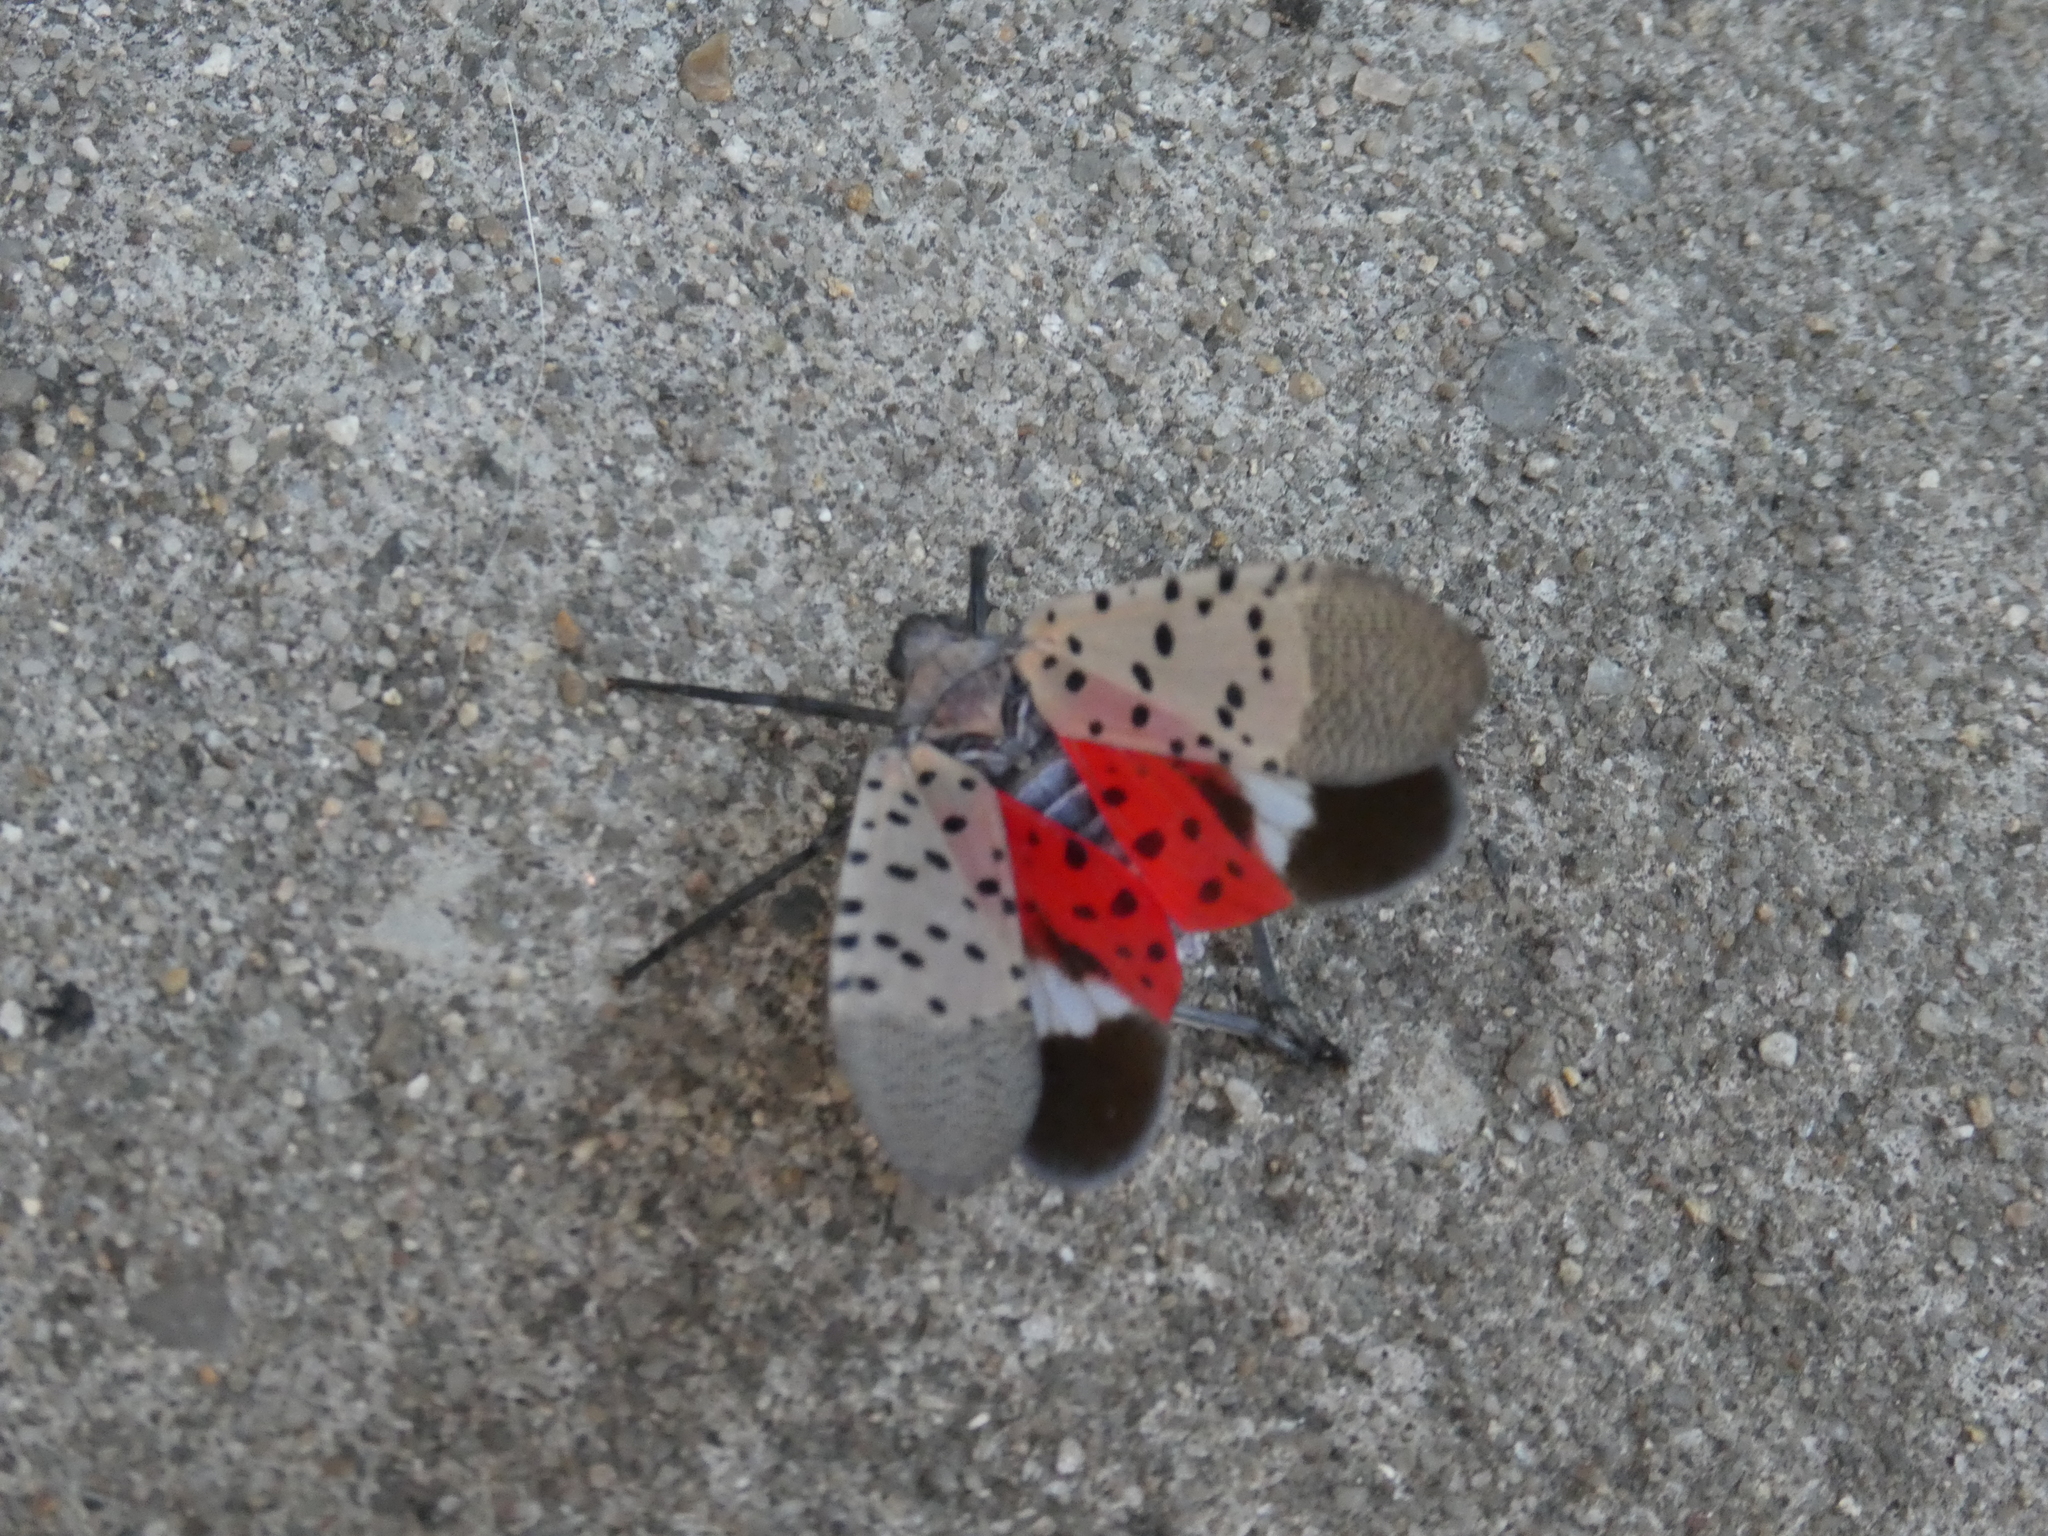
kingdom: Animalia
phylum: Arthropoda
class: Insecta
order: Hemiptera
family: Fulgoridae
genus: Lycorma
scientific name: Lycorma delicatula
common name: Spotted lanternfly
